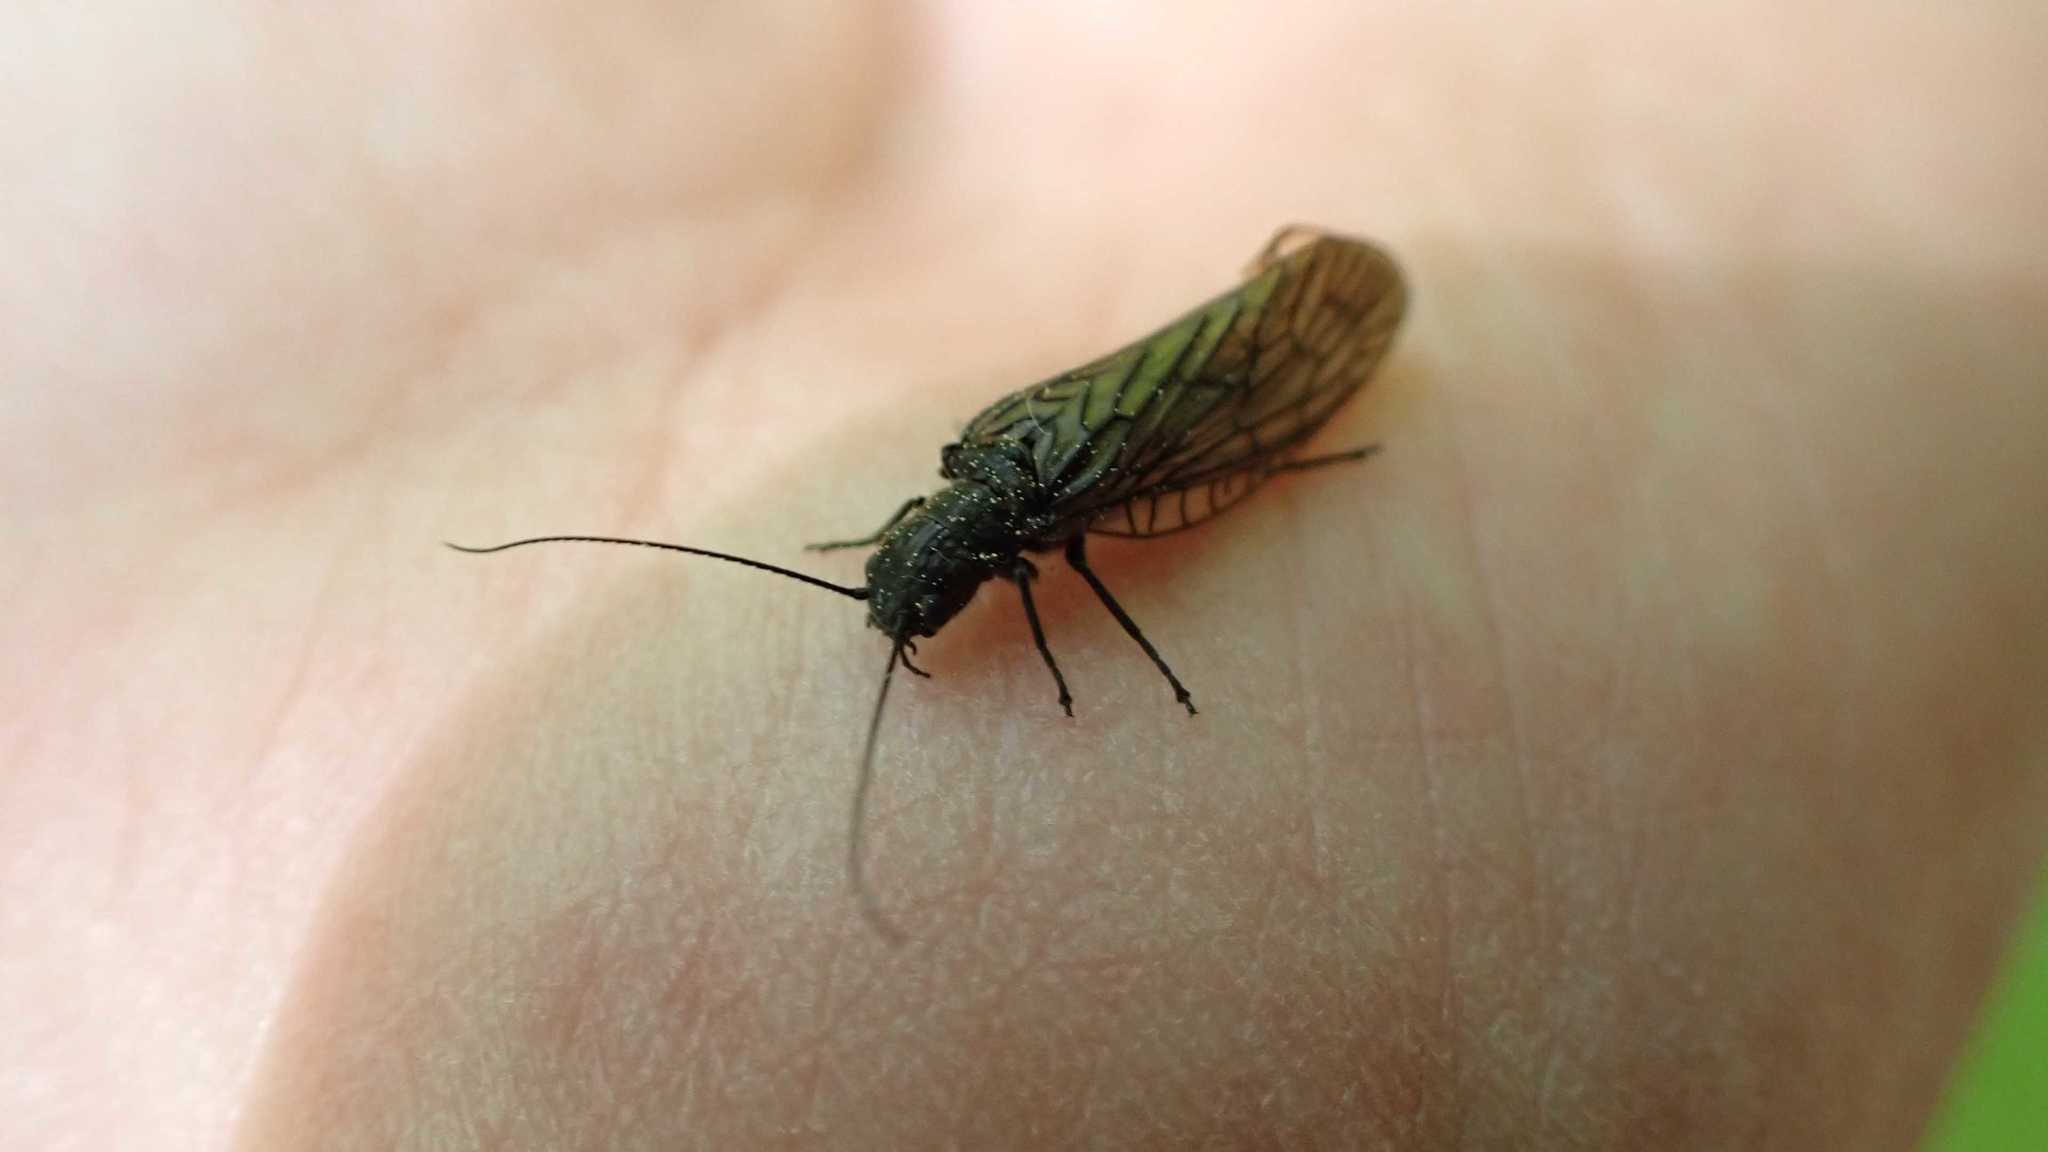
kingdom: Animalia
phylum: Arthropoda
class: Insecta
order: Megaloptera
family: Sialidae
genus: Sialis
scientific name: Sialis
